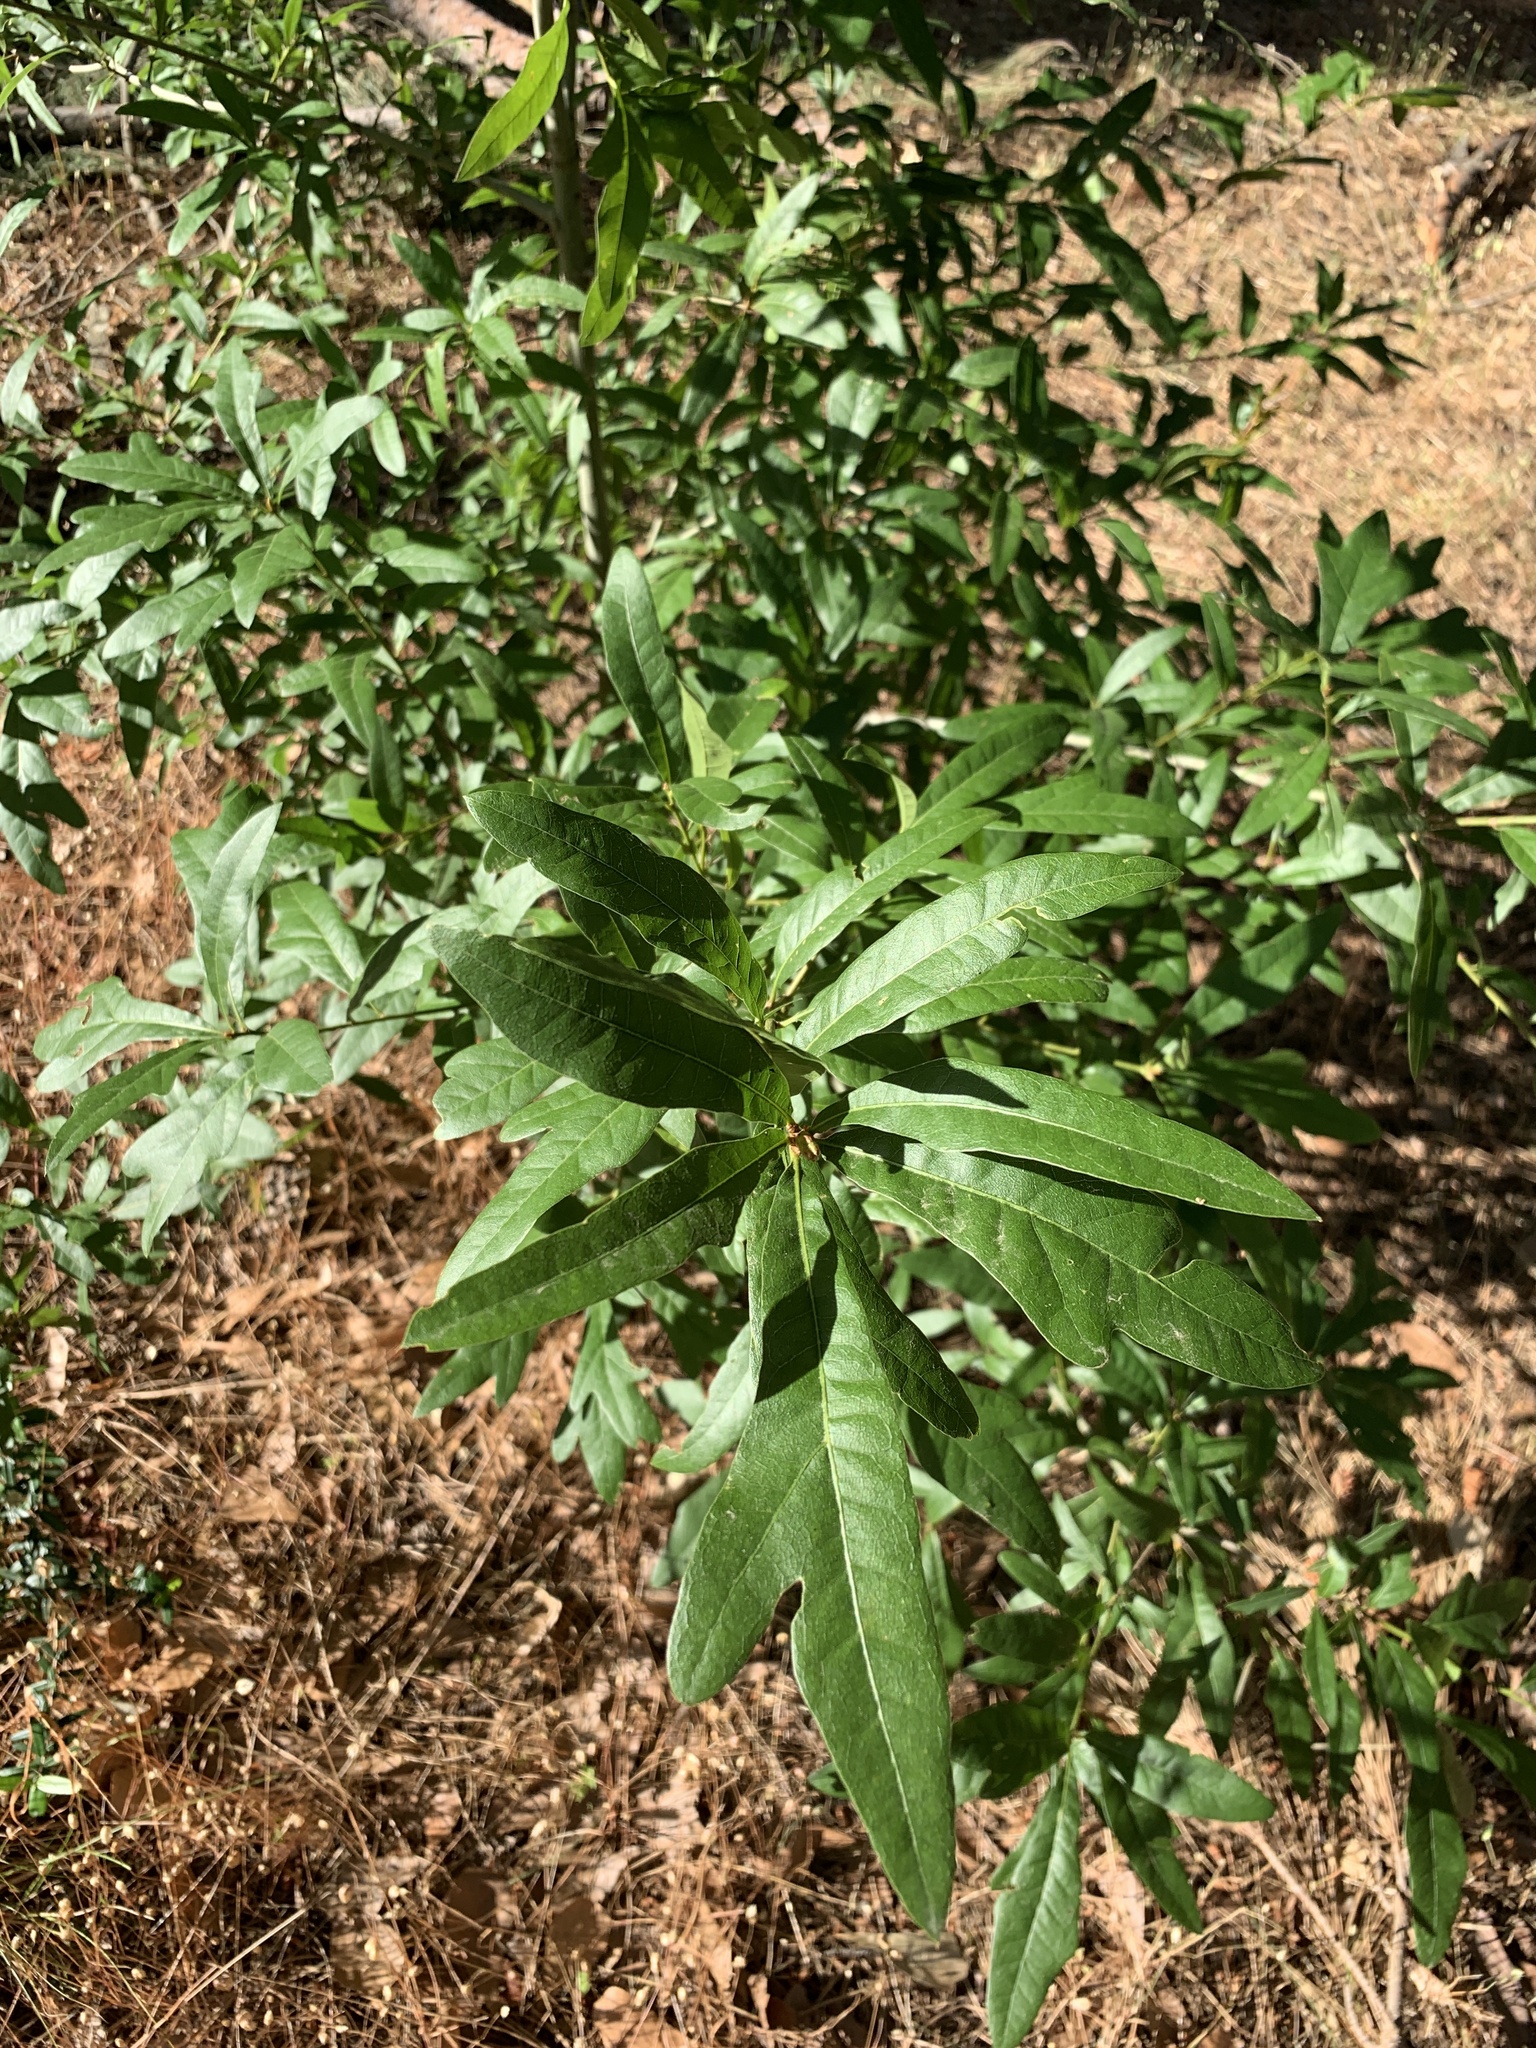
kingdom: Plantae
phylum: Tracheophyta
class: Magnoliopsida
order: Fagales
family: Fagaceae
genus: Quercus
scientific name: Quercus nigra
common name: Water oak
